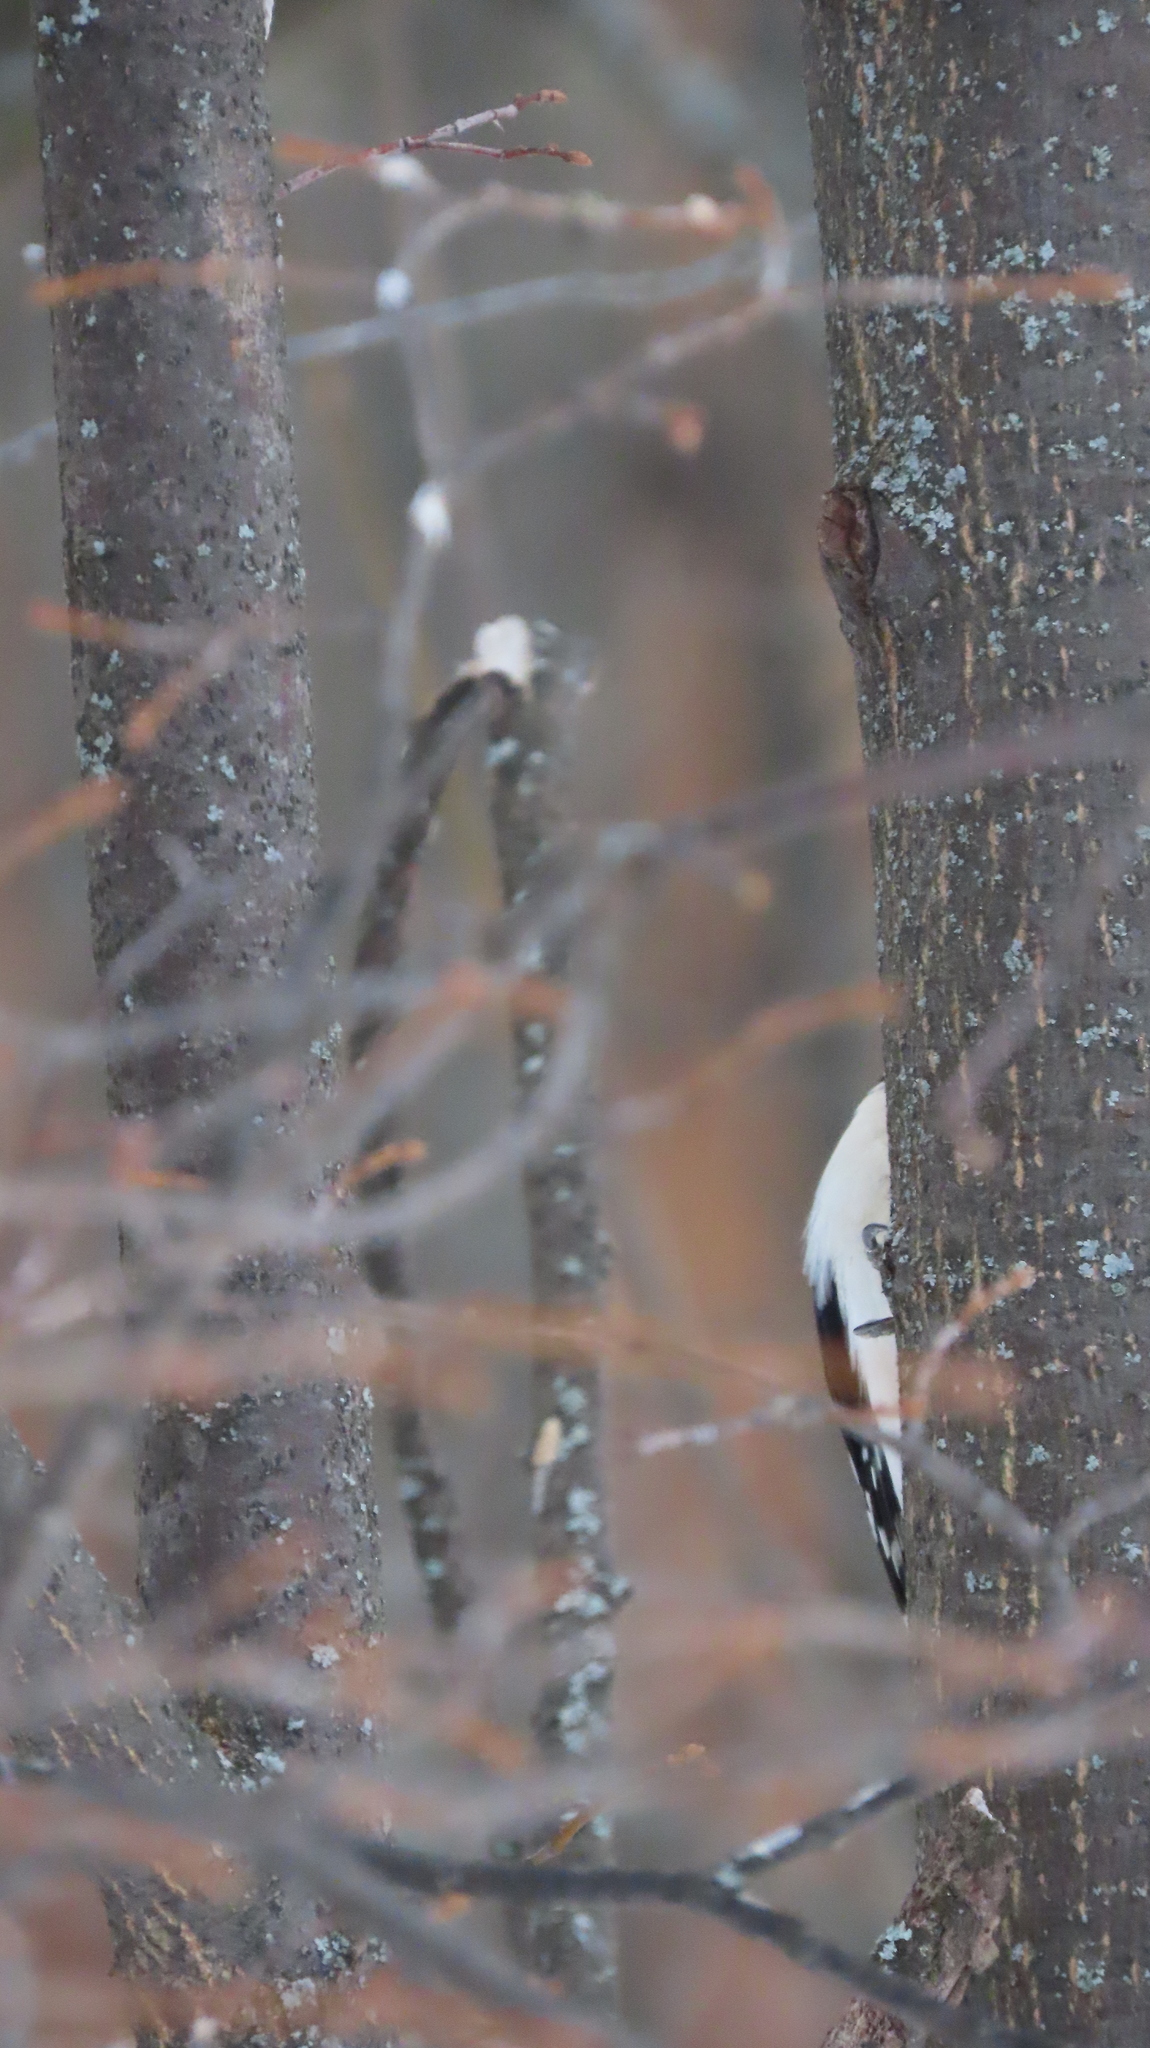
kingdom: Animalia
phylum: Chordata
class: Aves
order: Piciformes
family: Picidae
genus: Dendrocopos
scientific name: Dendrocopos major
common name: Great spotted woodpecker
